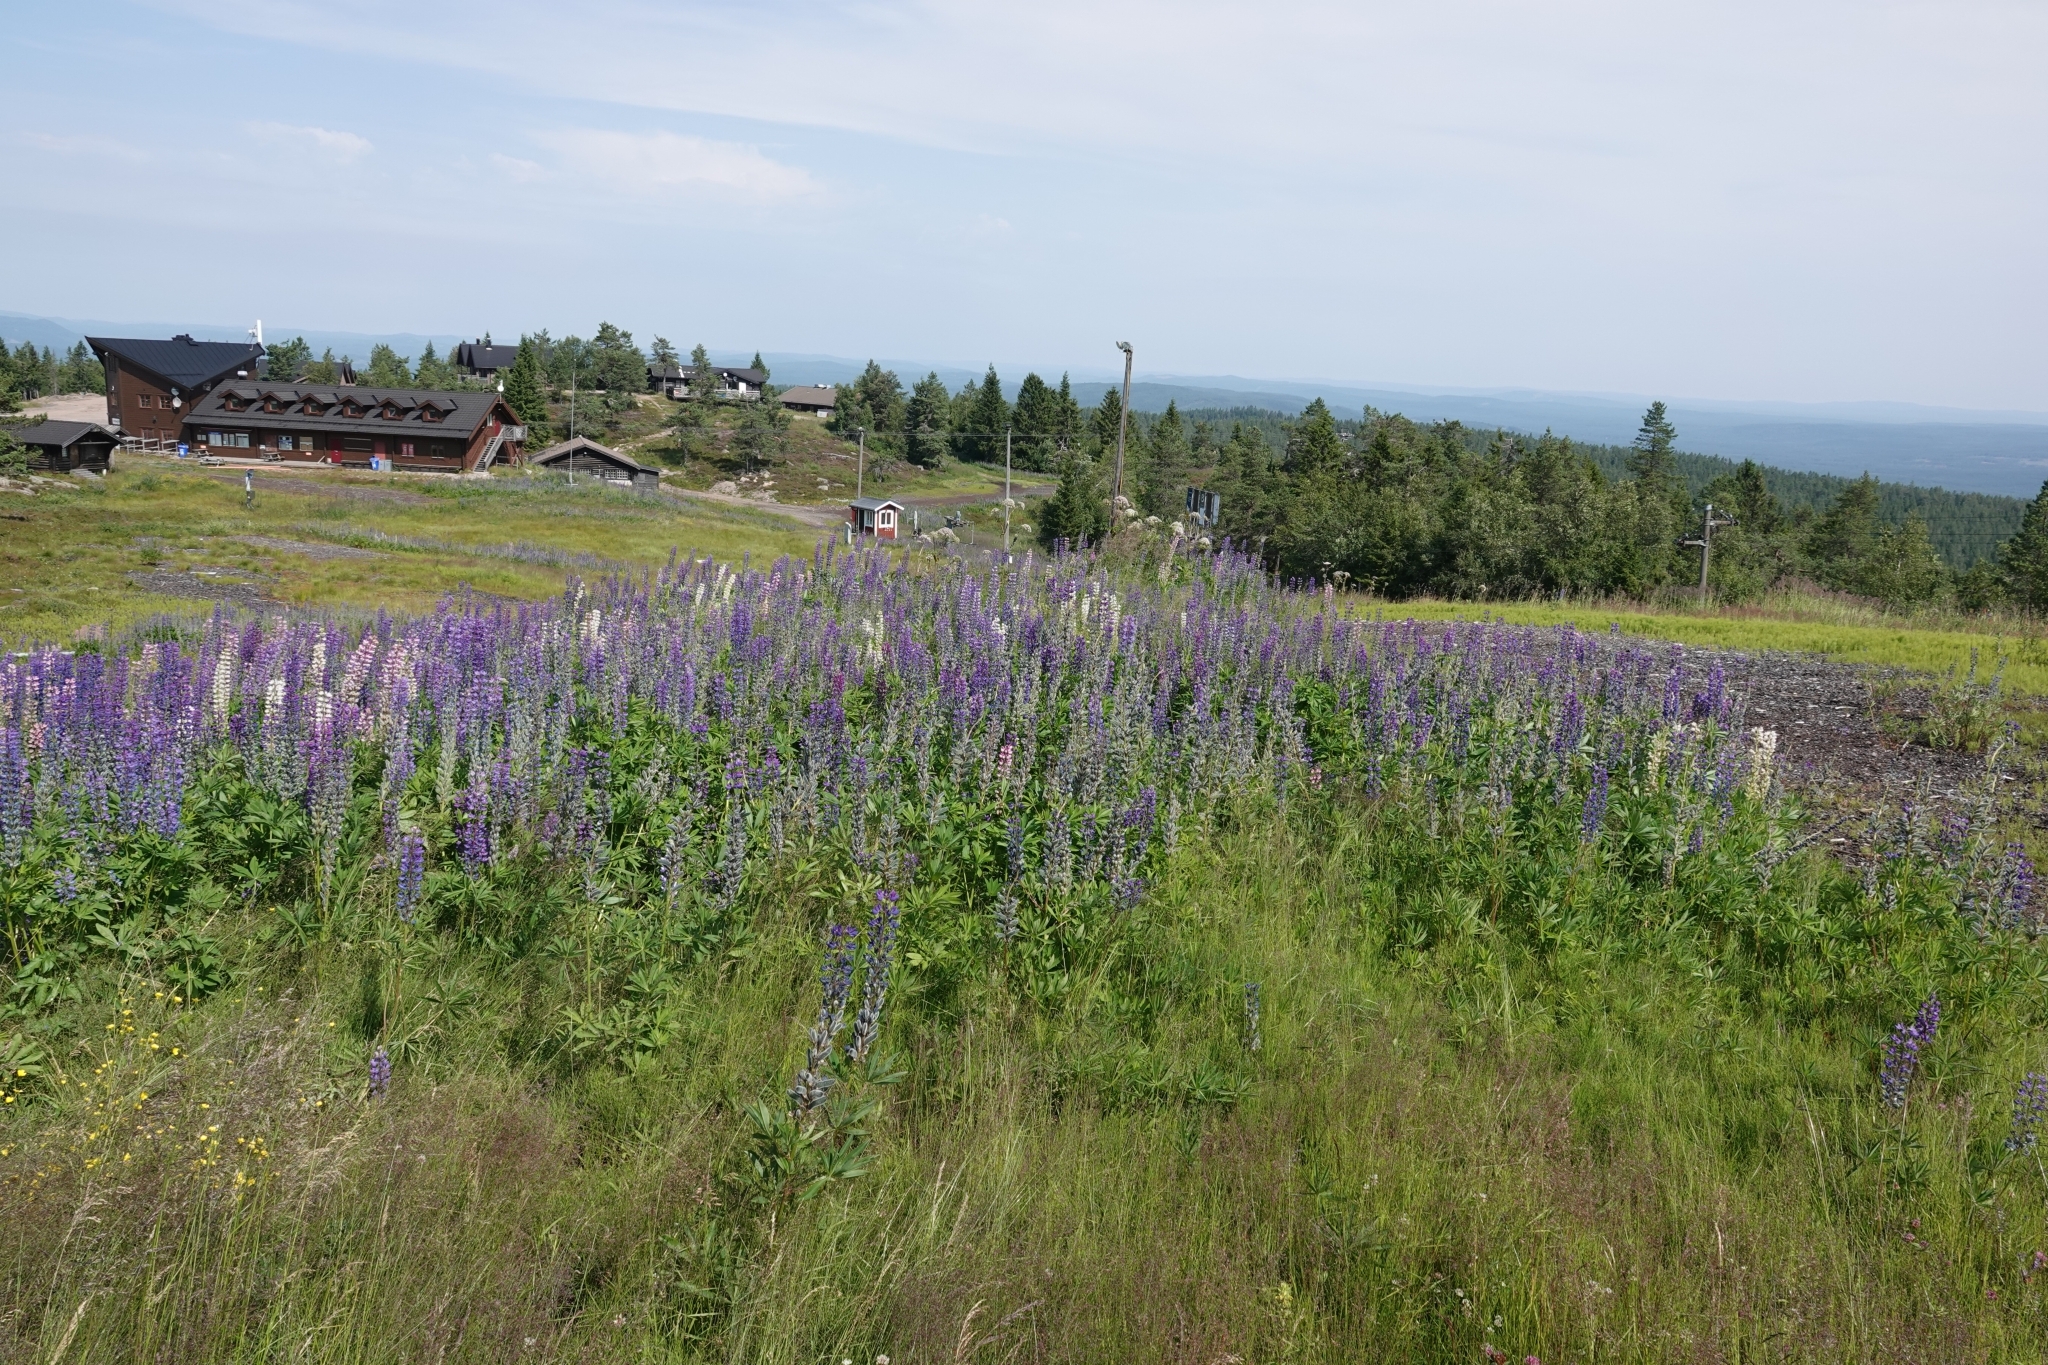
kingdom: Plantae
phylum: Tracheophyta
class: Magnoliopsida
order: Fabales
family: Fabaceae
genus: Lupinus
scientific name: Lupinus polyphyllus
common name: Garden lupin
